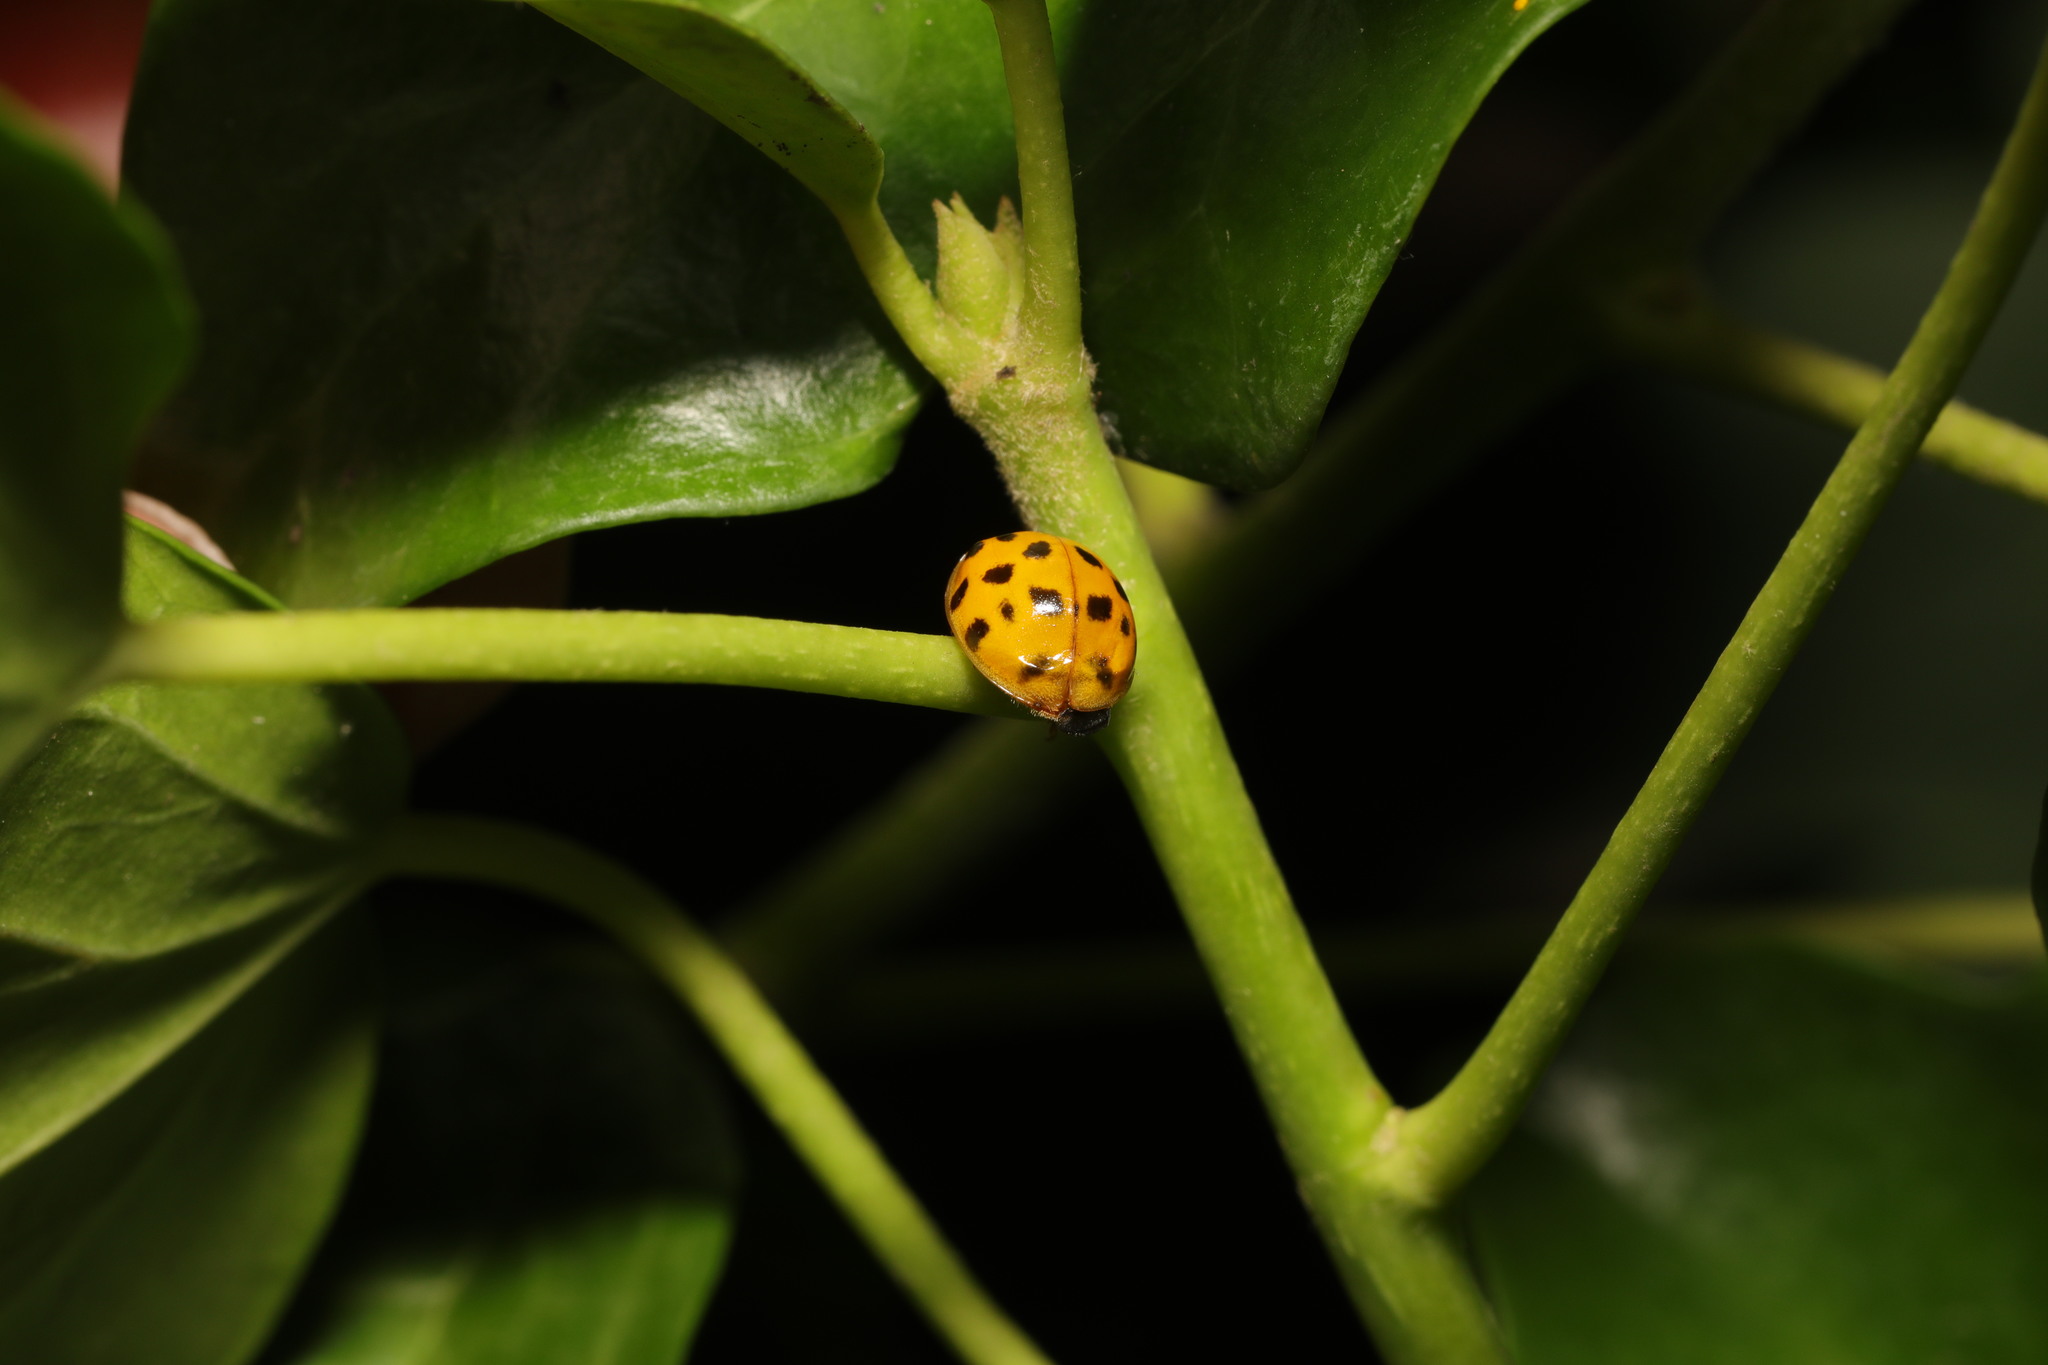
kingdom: Animalia
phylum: Arthropoda
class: Insecta
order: Coleoptera
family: Coccinellidae
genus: Harmonia
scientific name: Harmonia axyridis
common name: Harlequin ladybird
